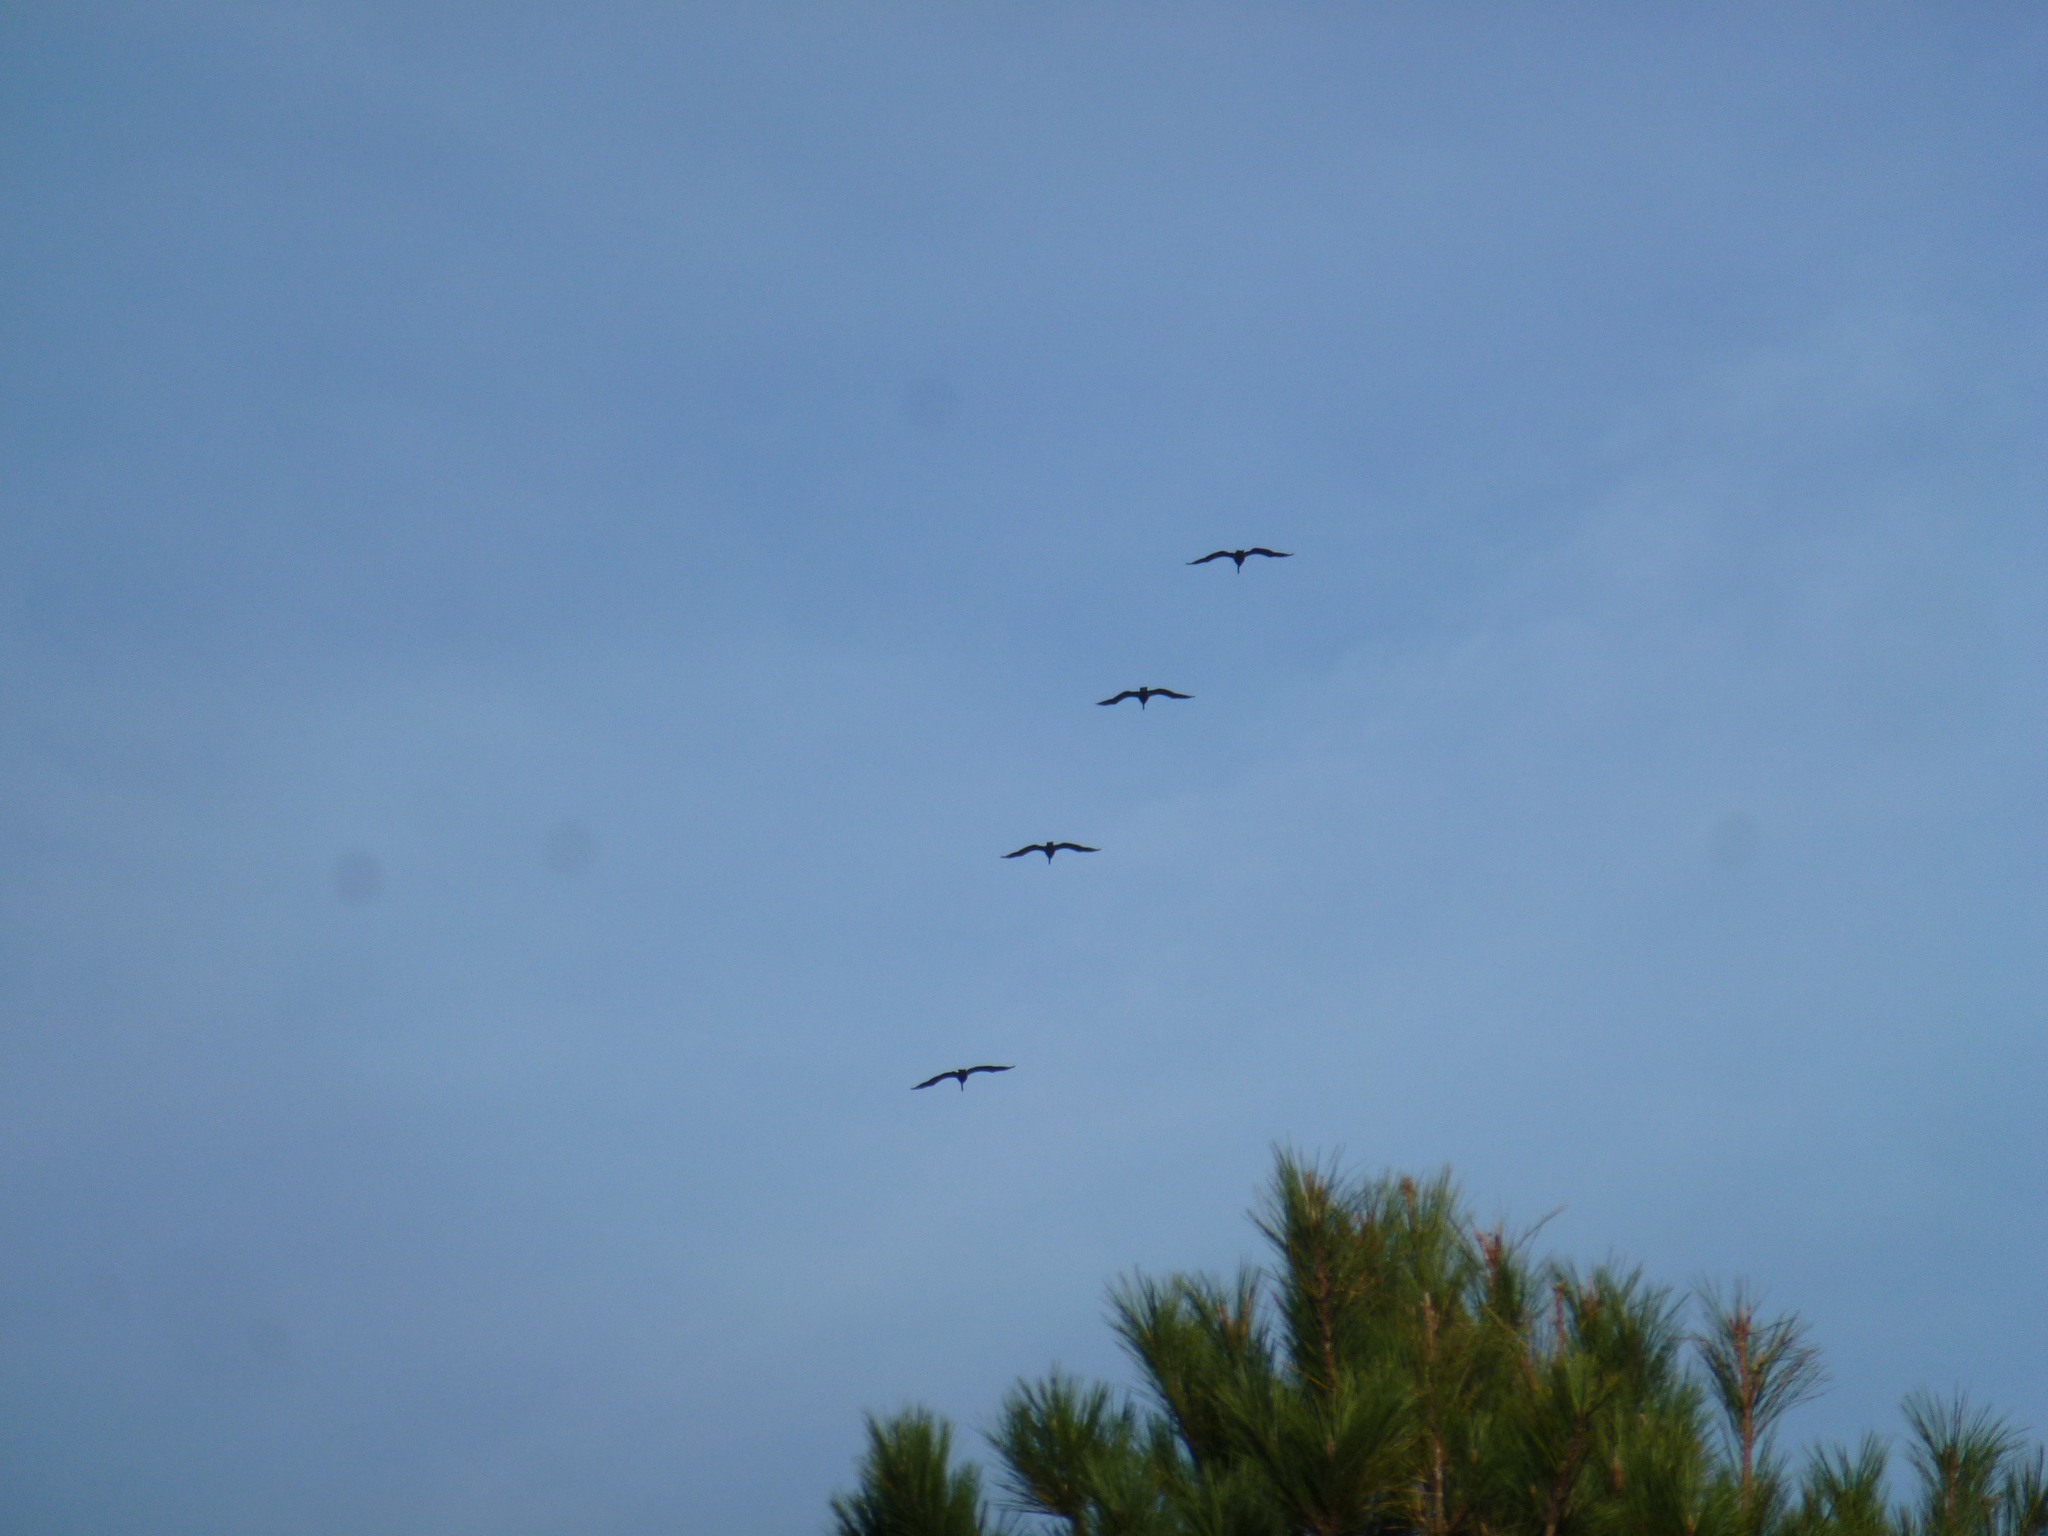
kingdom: Animalia
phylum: Chordata
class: Aves
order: Pelecaniformes
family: Pelecanidae
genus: Pelecanus
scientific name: Pelecanus occidentalis
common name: Brown pelican
